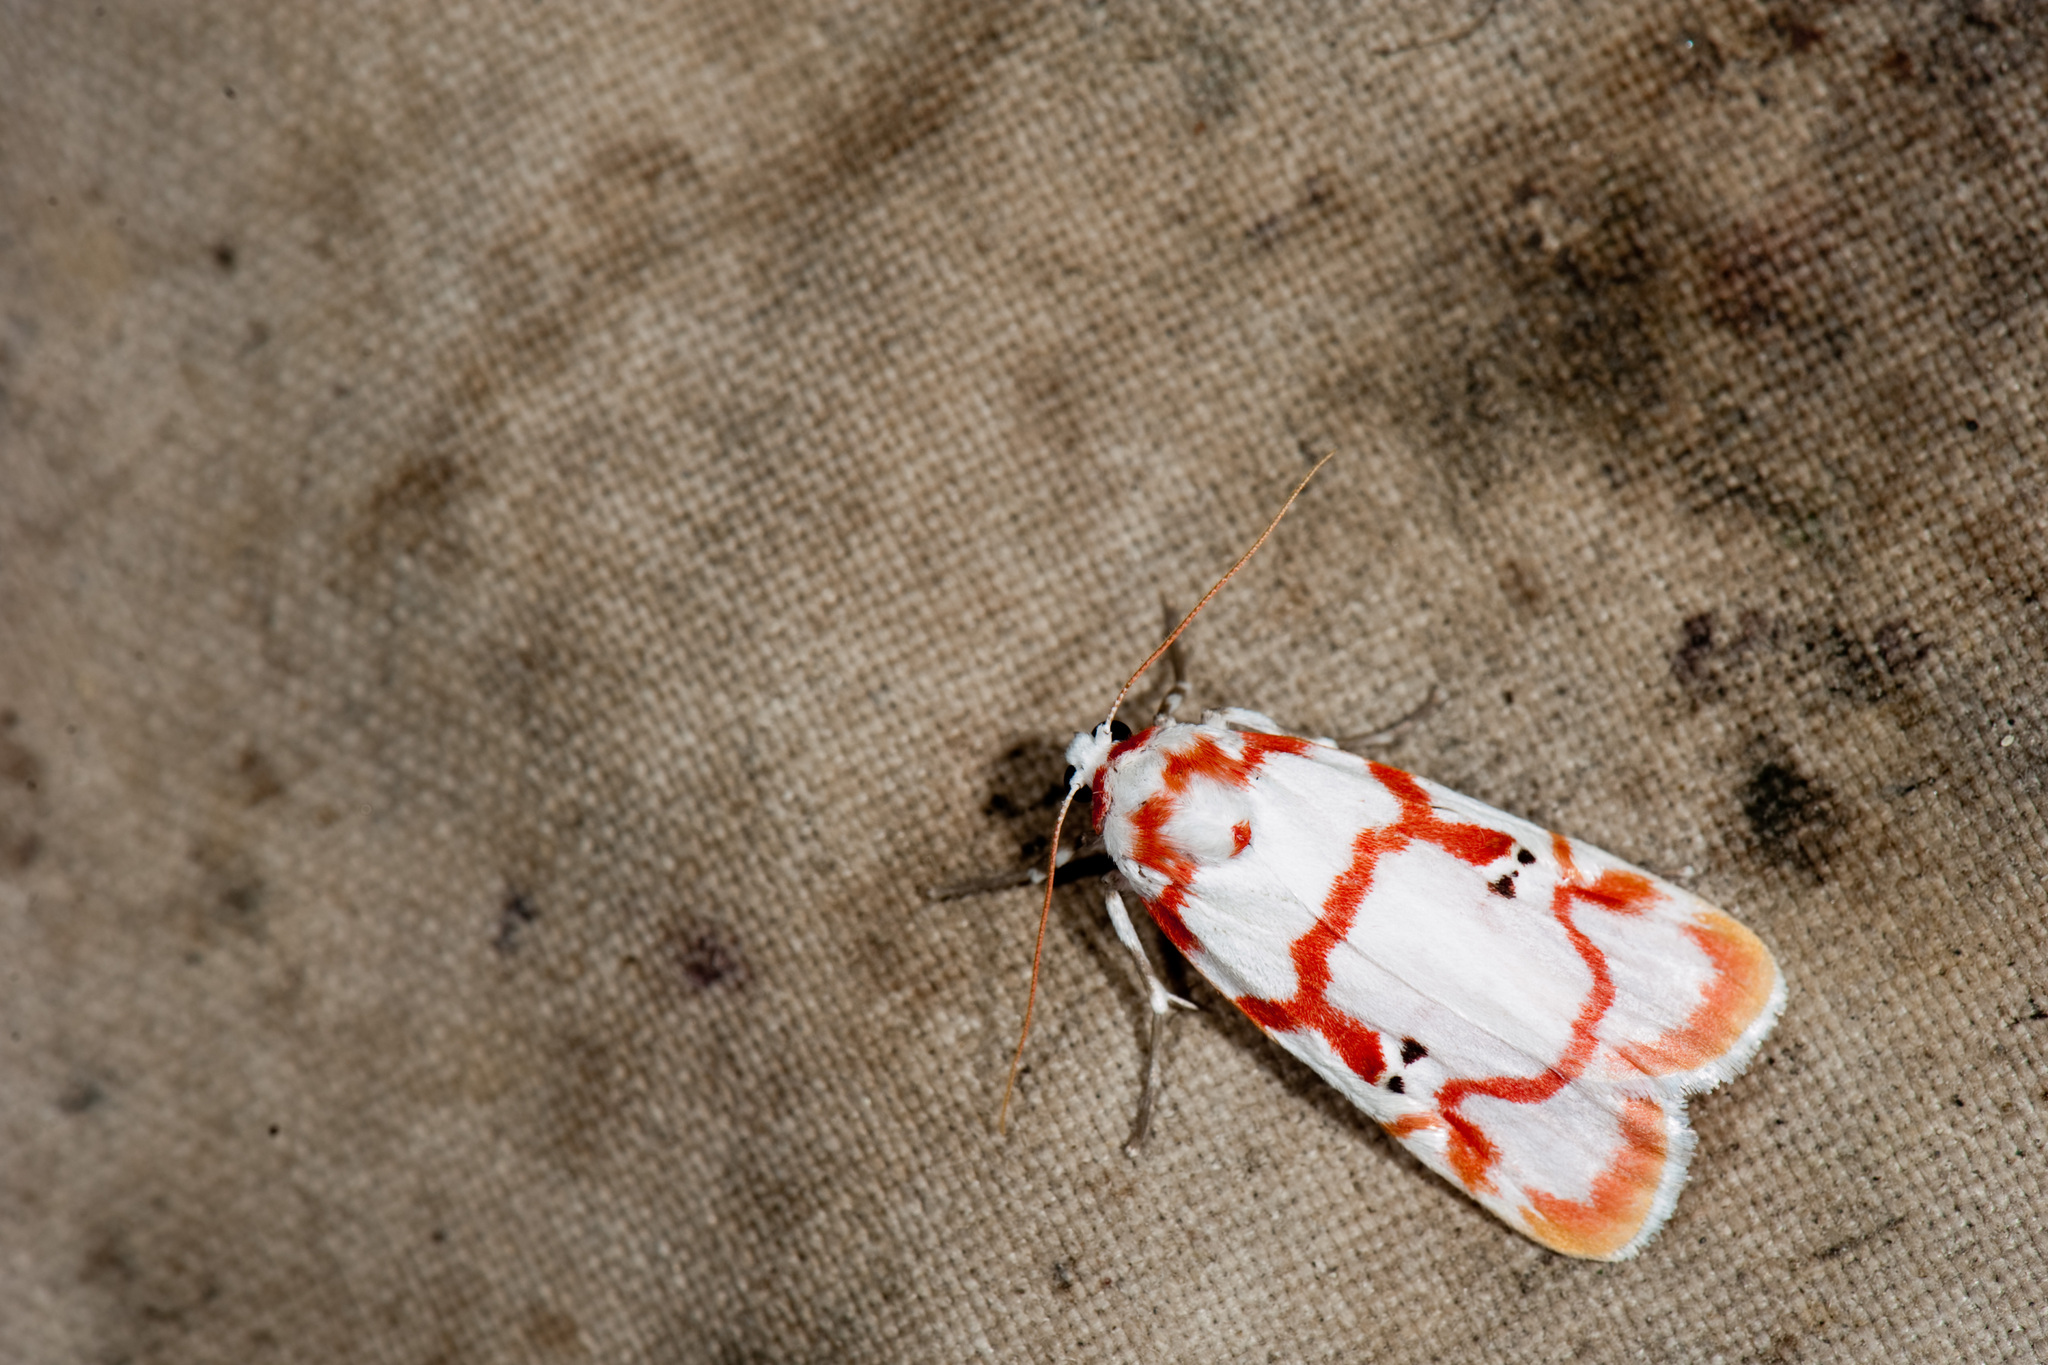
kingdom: Animalia
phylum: Arthropoda
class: Insecta
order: Lepidoptera
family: Erebidae
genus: Cyana
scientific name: Cyana hamata
